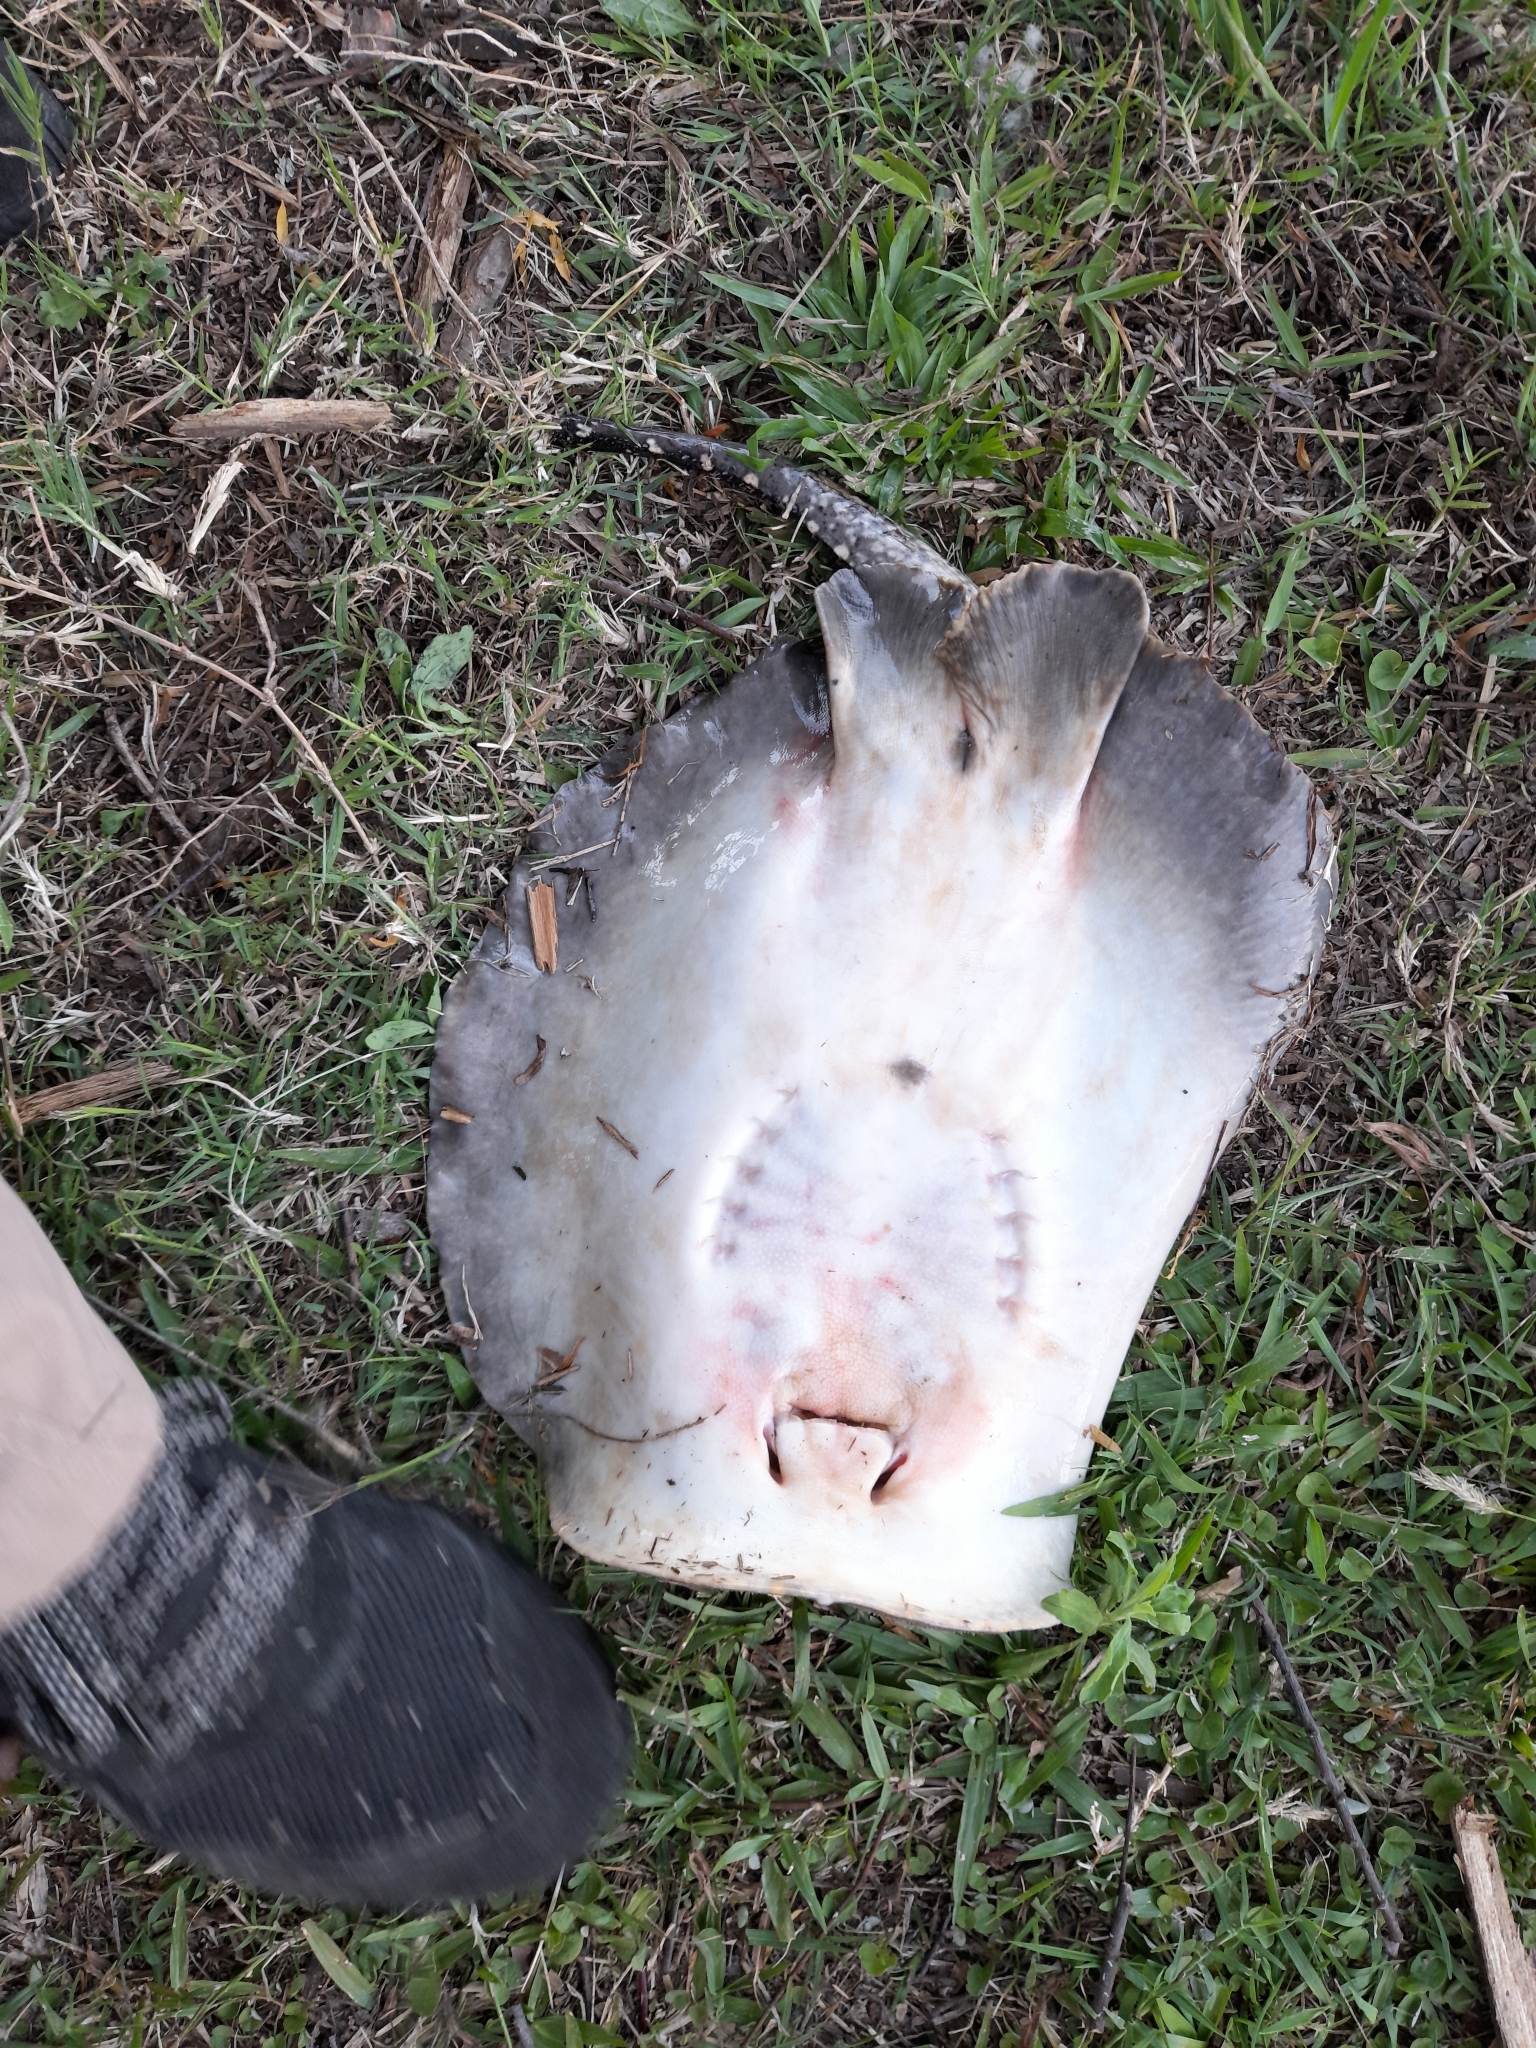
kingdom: Animalia
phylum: Chordata
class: Elasmobranchii
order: Myliobatiformes
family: Potamotrygonidae
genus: Potamotrygon
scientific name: Potamotrygon motoro
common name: South american freshwater stingray
